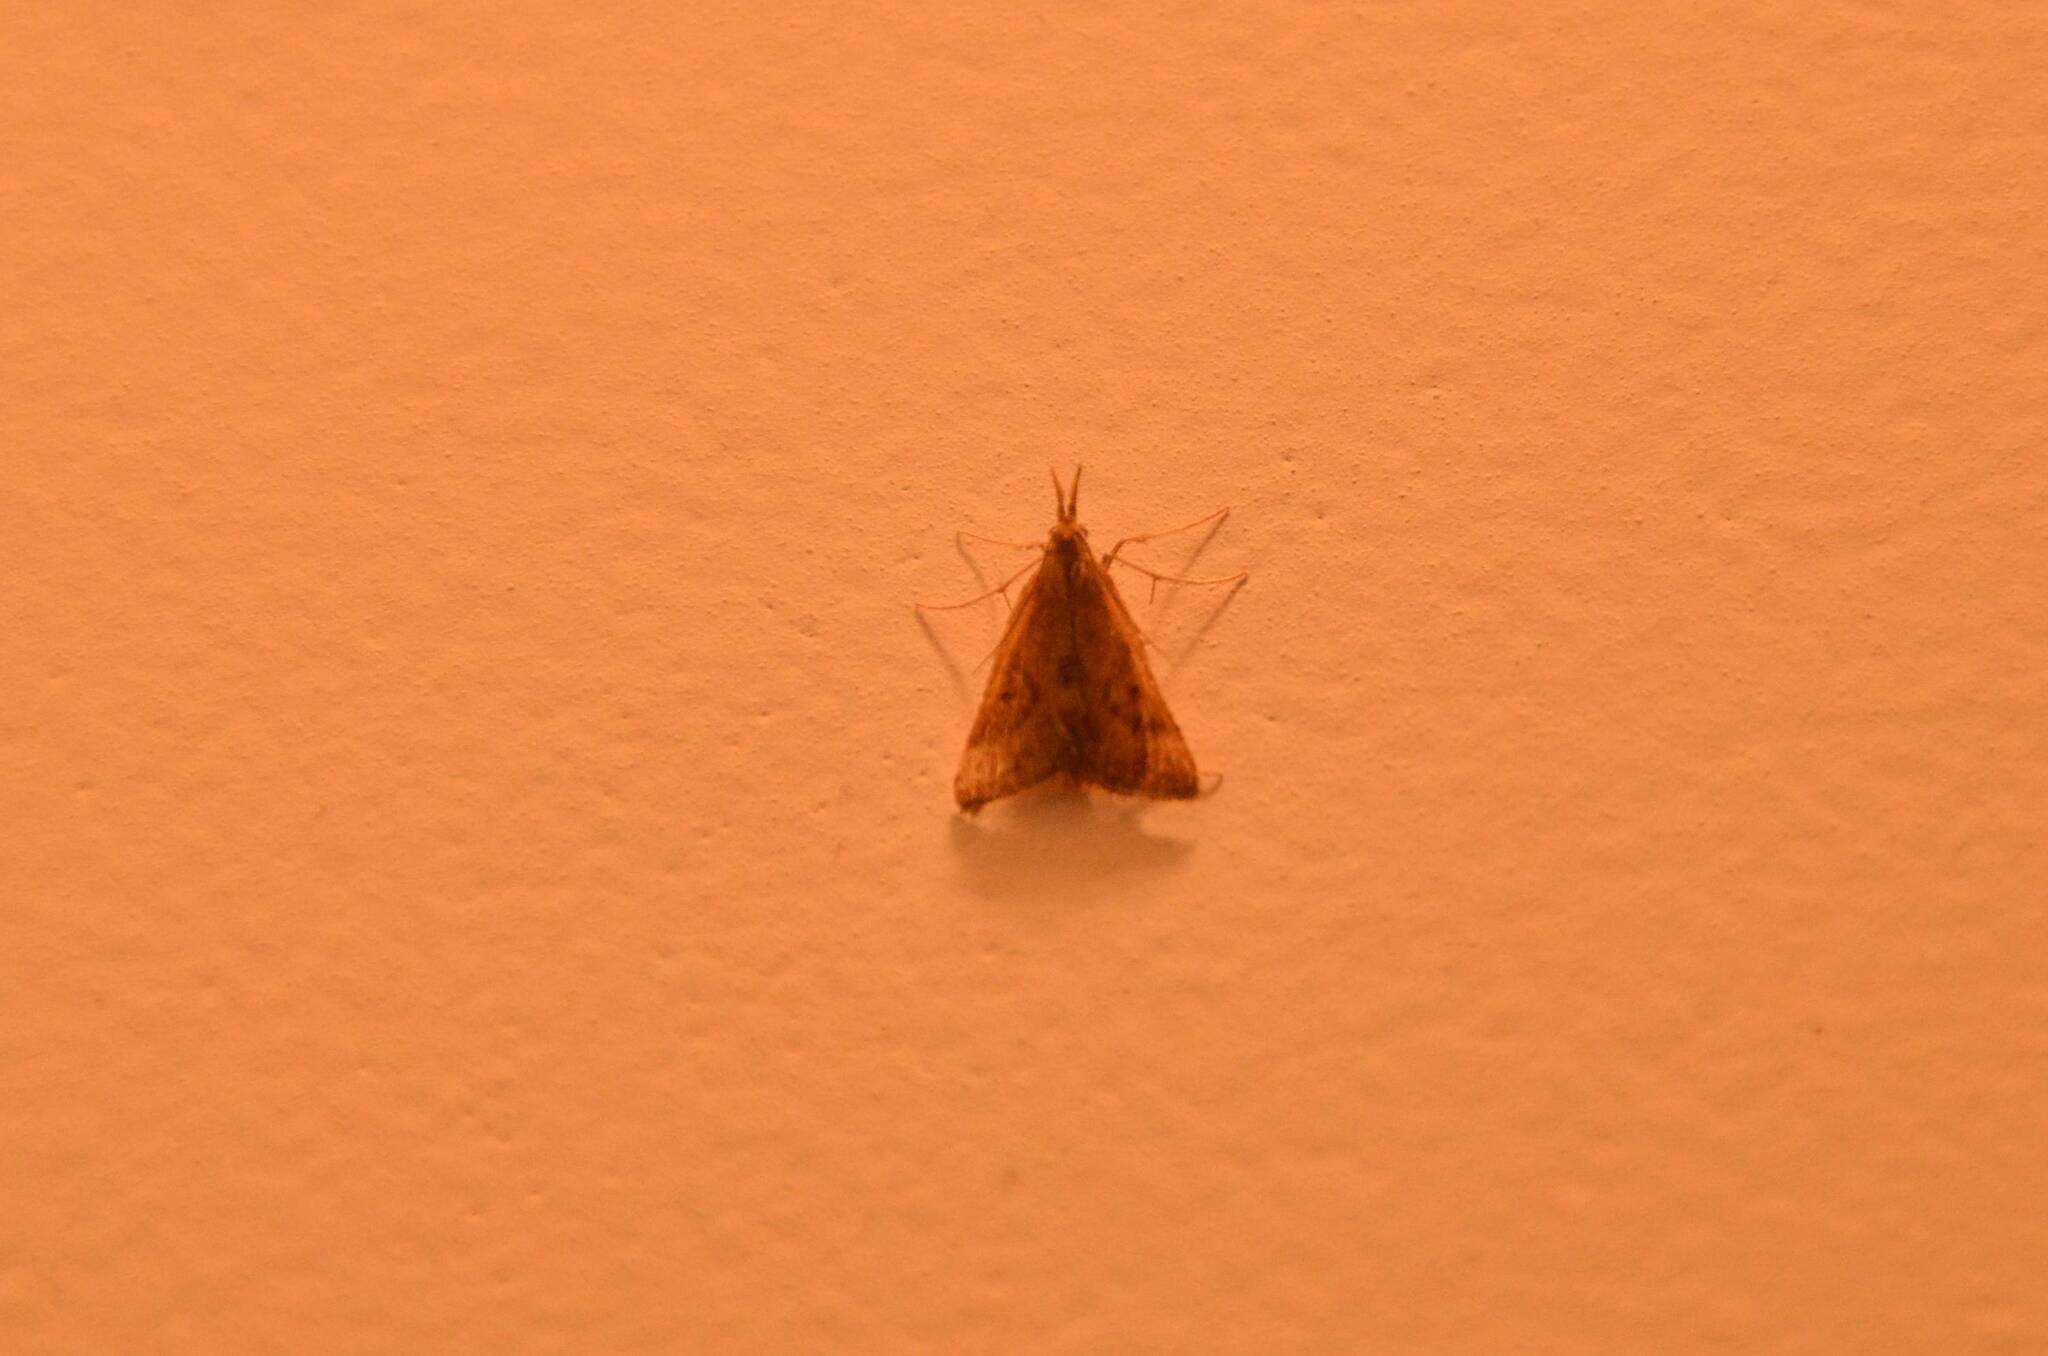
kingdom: Animalia
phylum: Arthropoda
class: Insecta
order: Lepidoptera
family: Pyralidae
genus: Synaphe
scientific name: Synaphe punctalis
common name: Long-legged tabby
